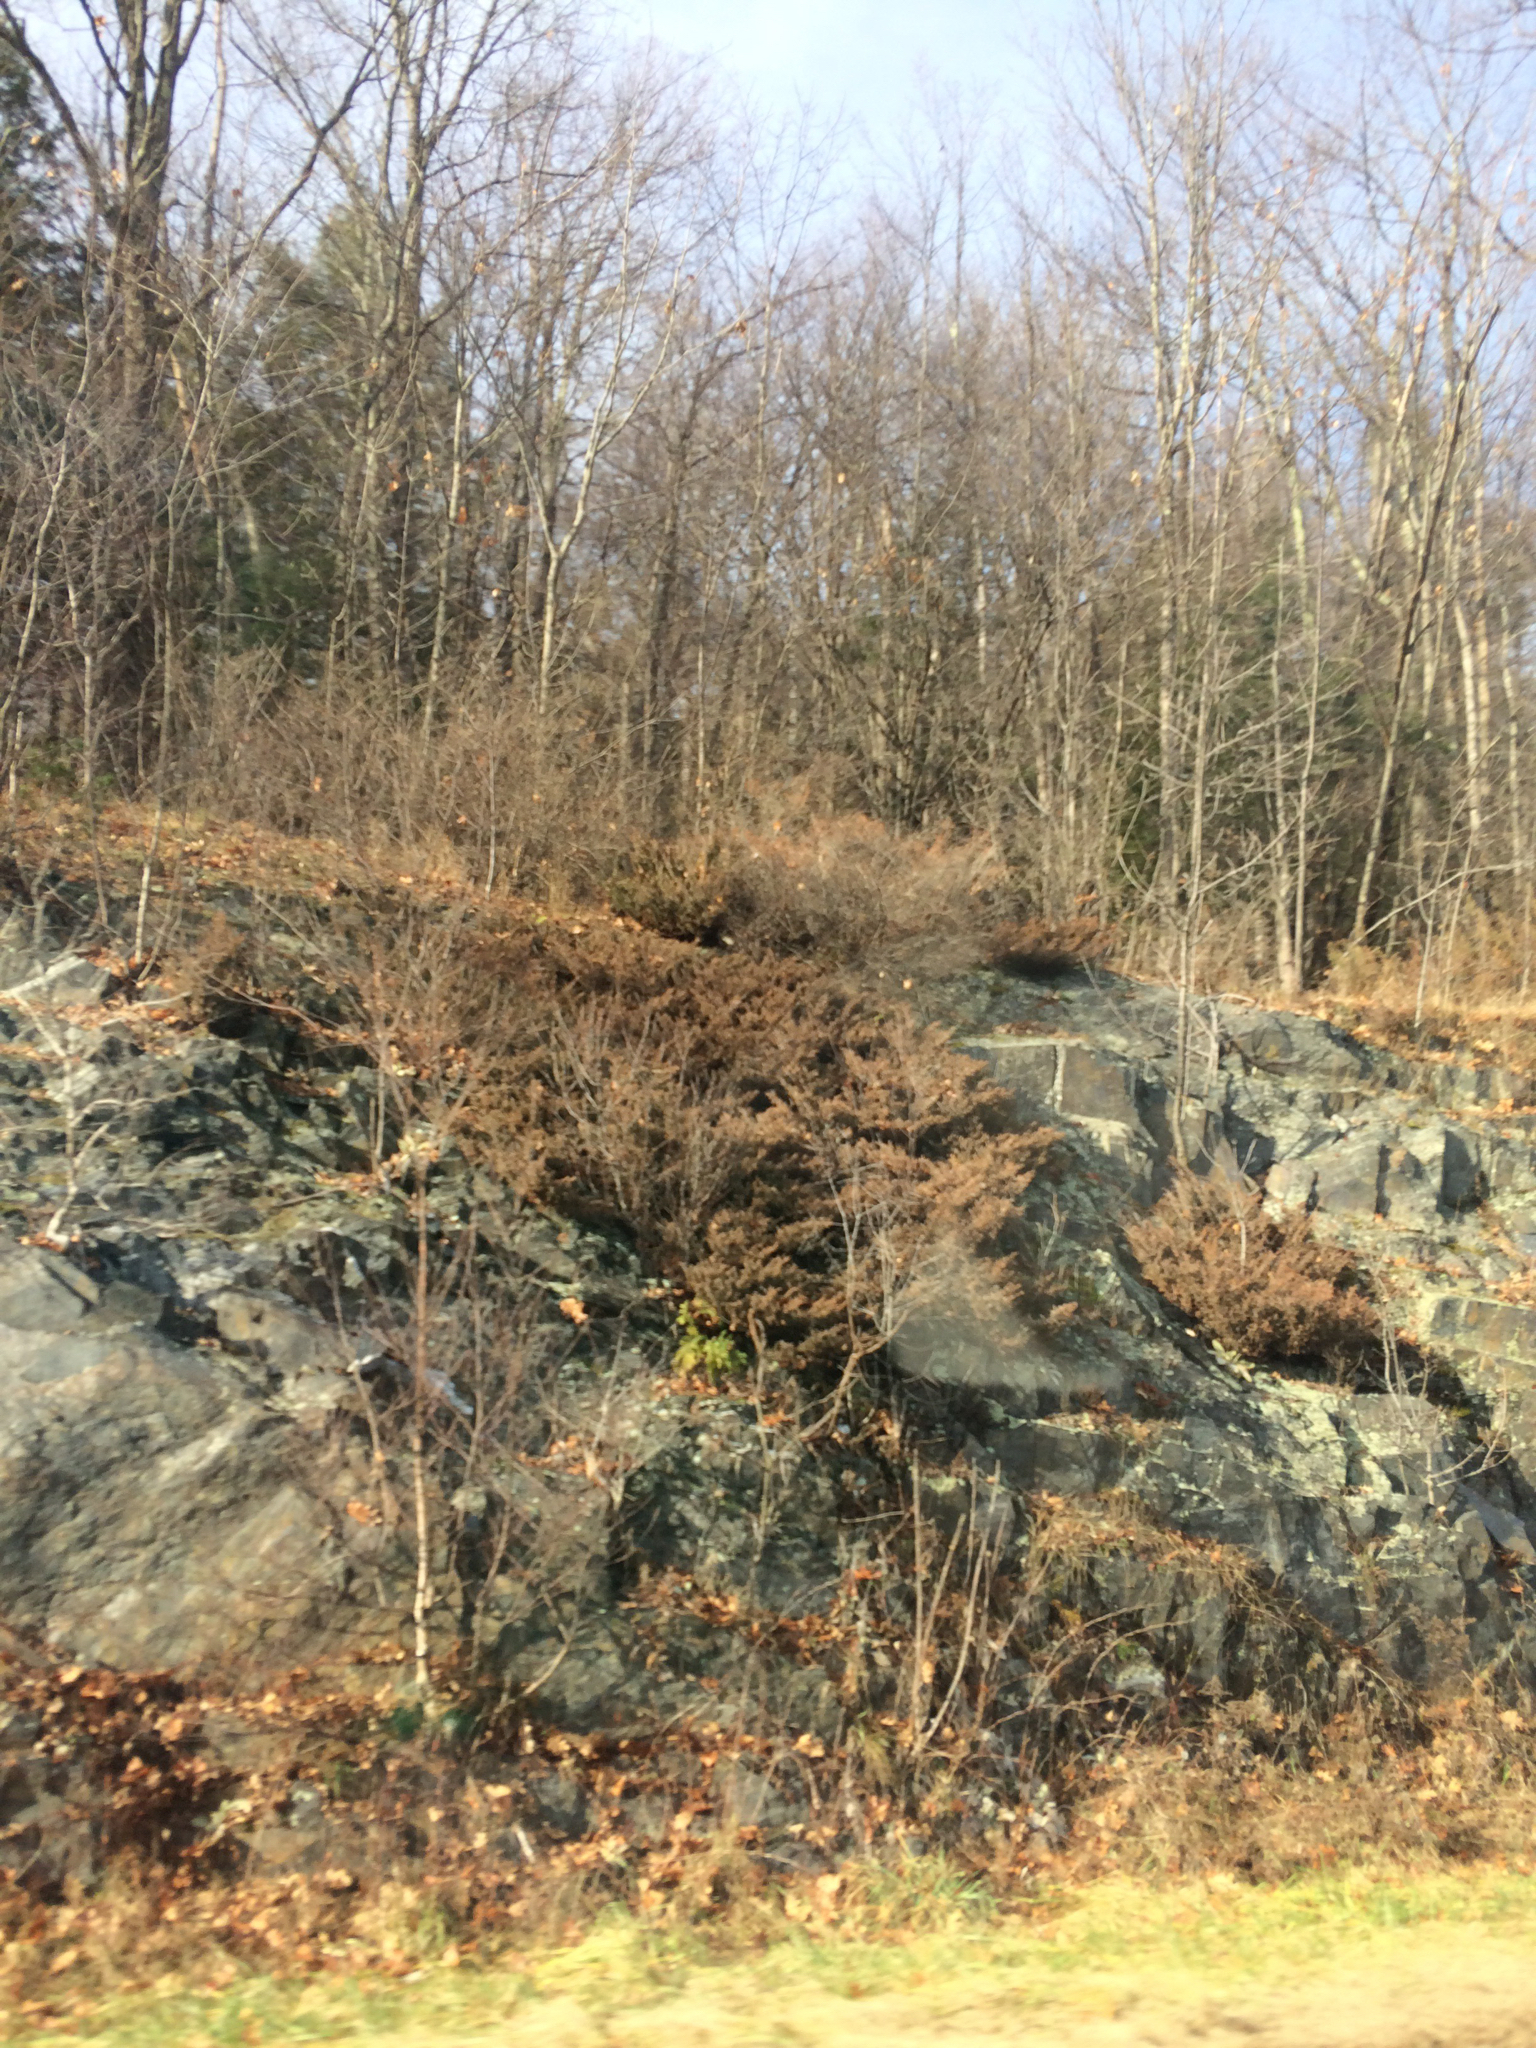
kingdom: Plantae
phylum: Tracheophyta
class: Pinopsida
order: Pinales
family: Cupressaceae
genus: Juniperus
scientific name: Juniperus communis
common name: Common juniper
